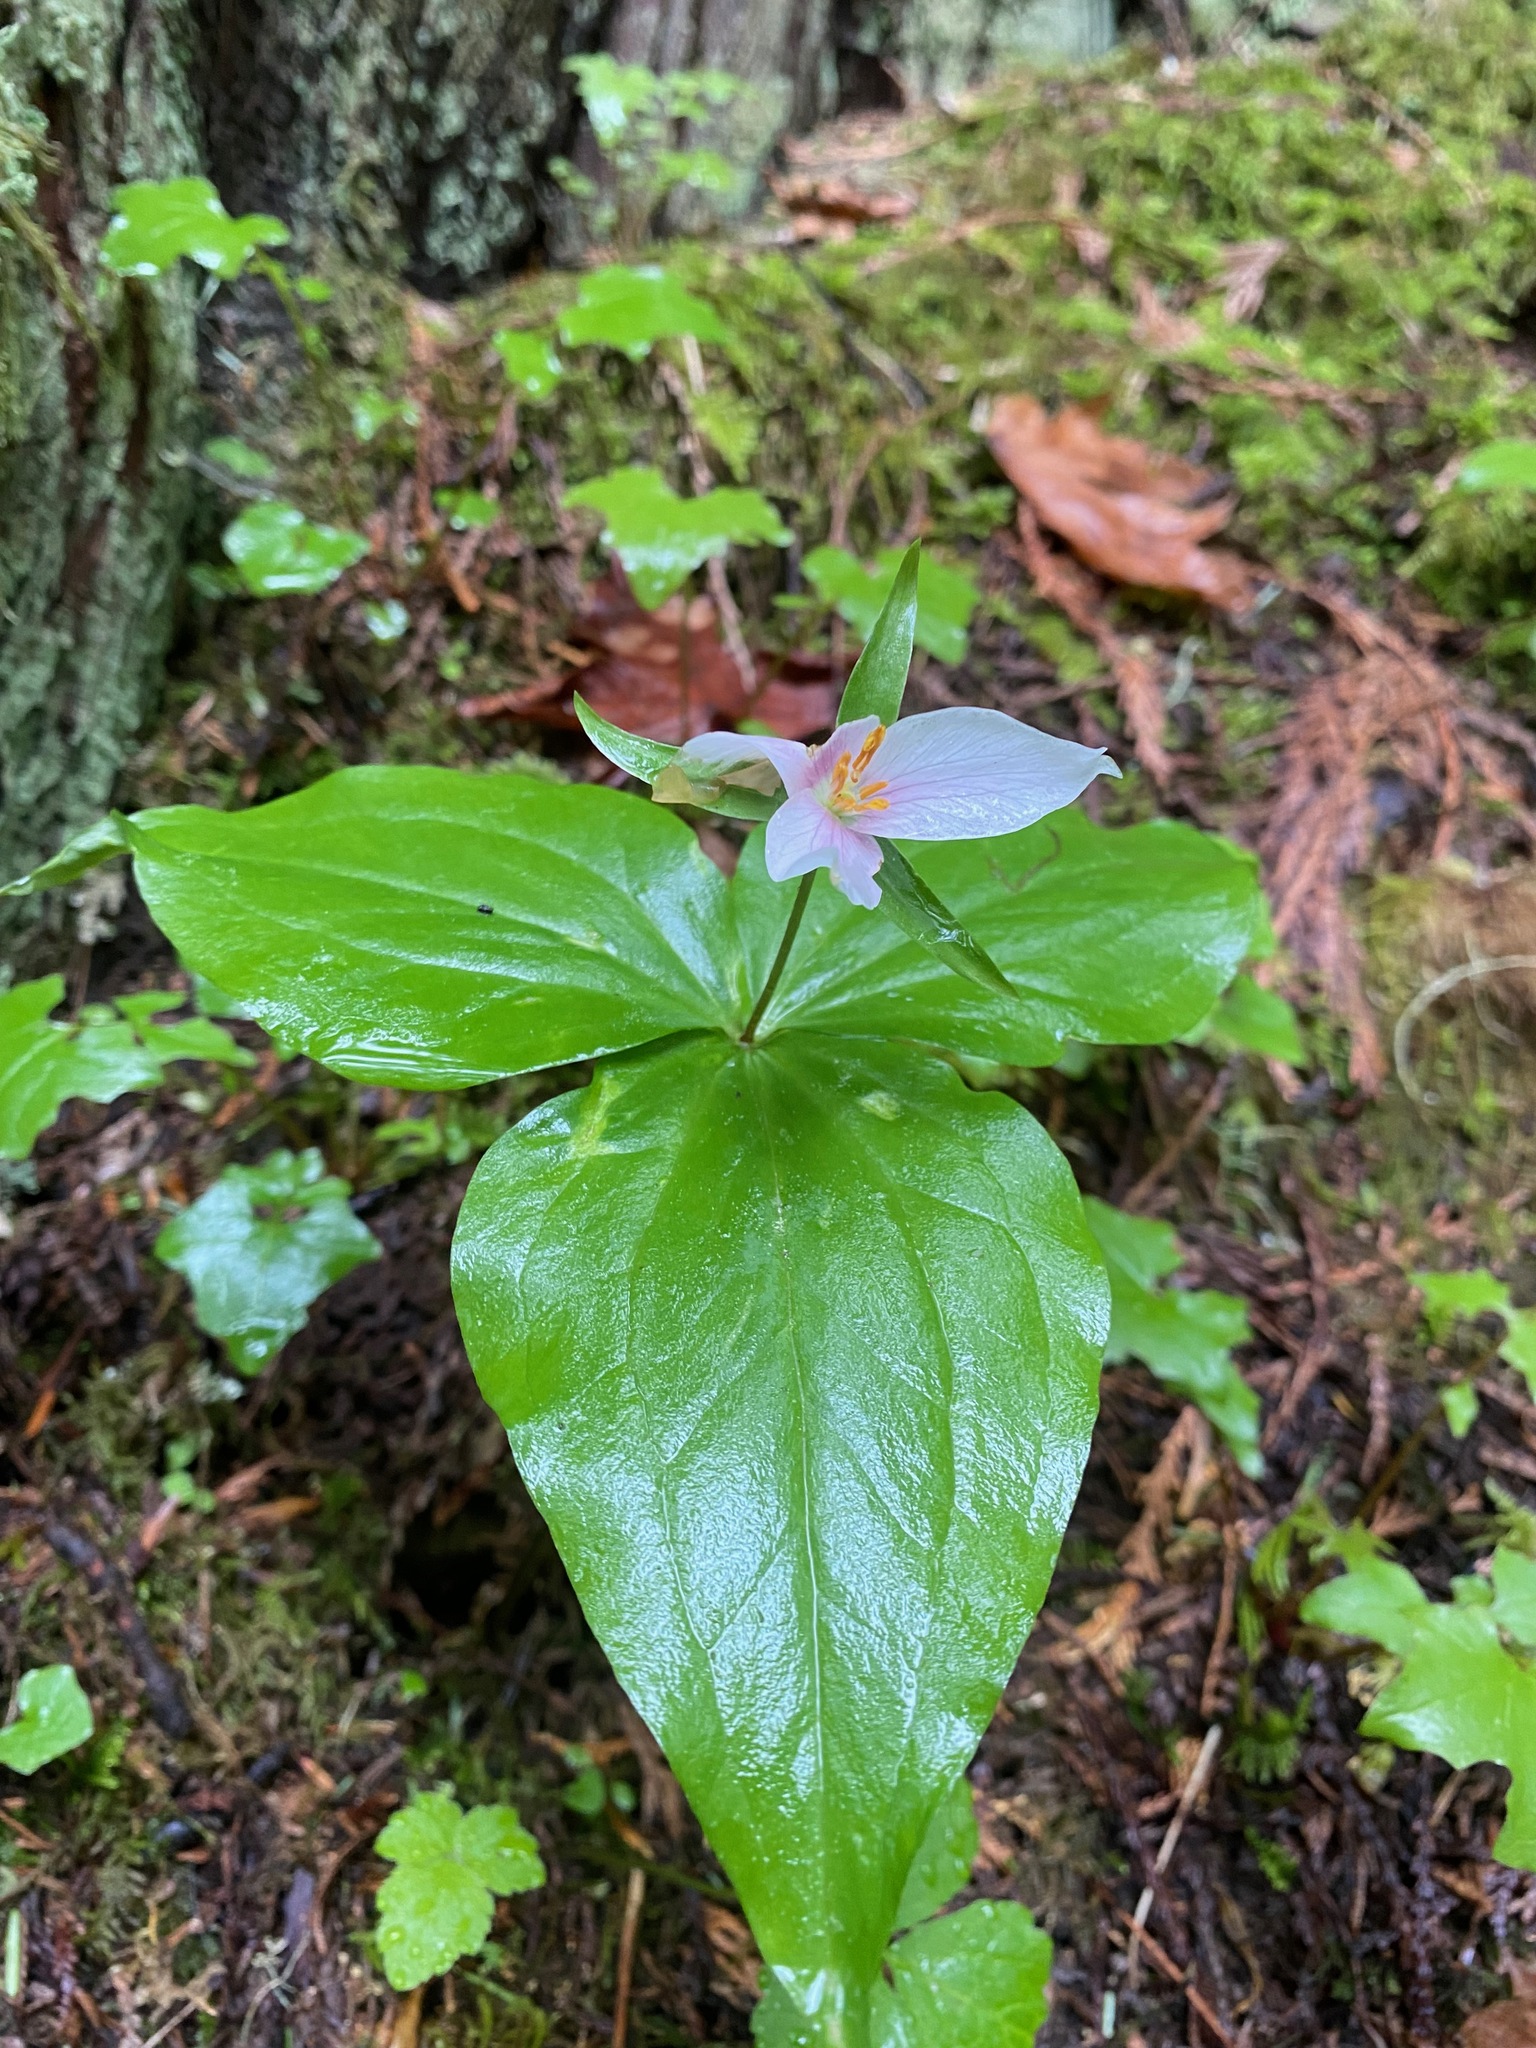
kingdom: Plantae
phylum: Tracheophyta
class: Liliopsida
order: Liliales
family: Melanthiaceae
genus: Trillium
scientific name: Trillium ovatum
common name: Pacific trillium
